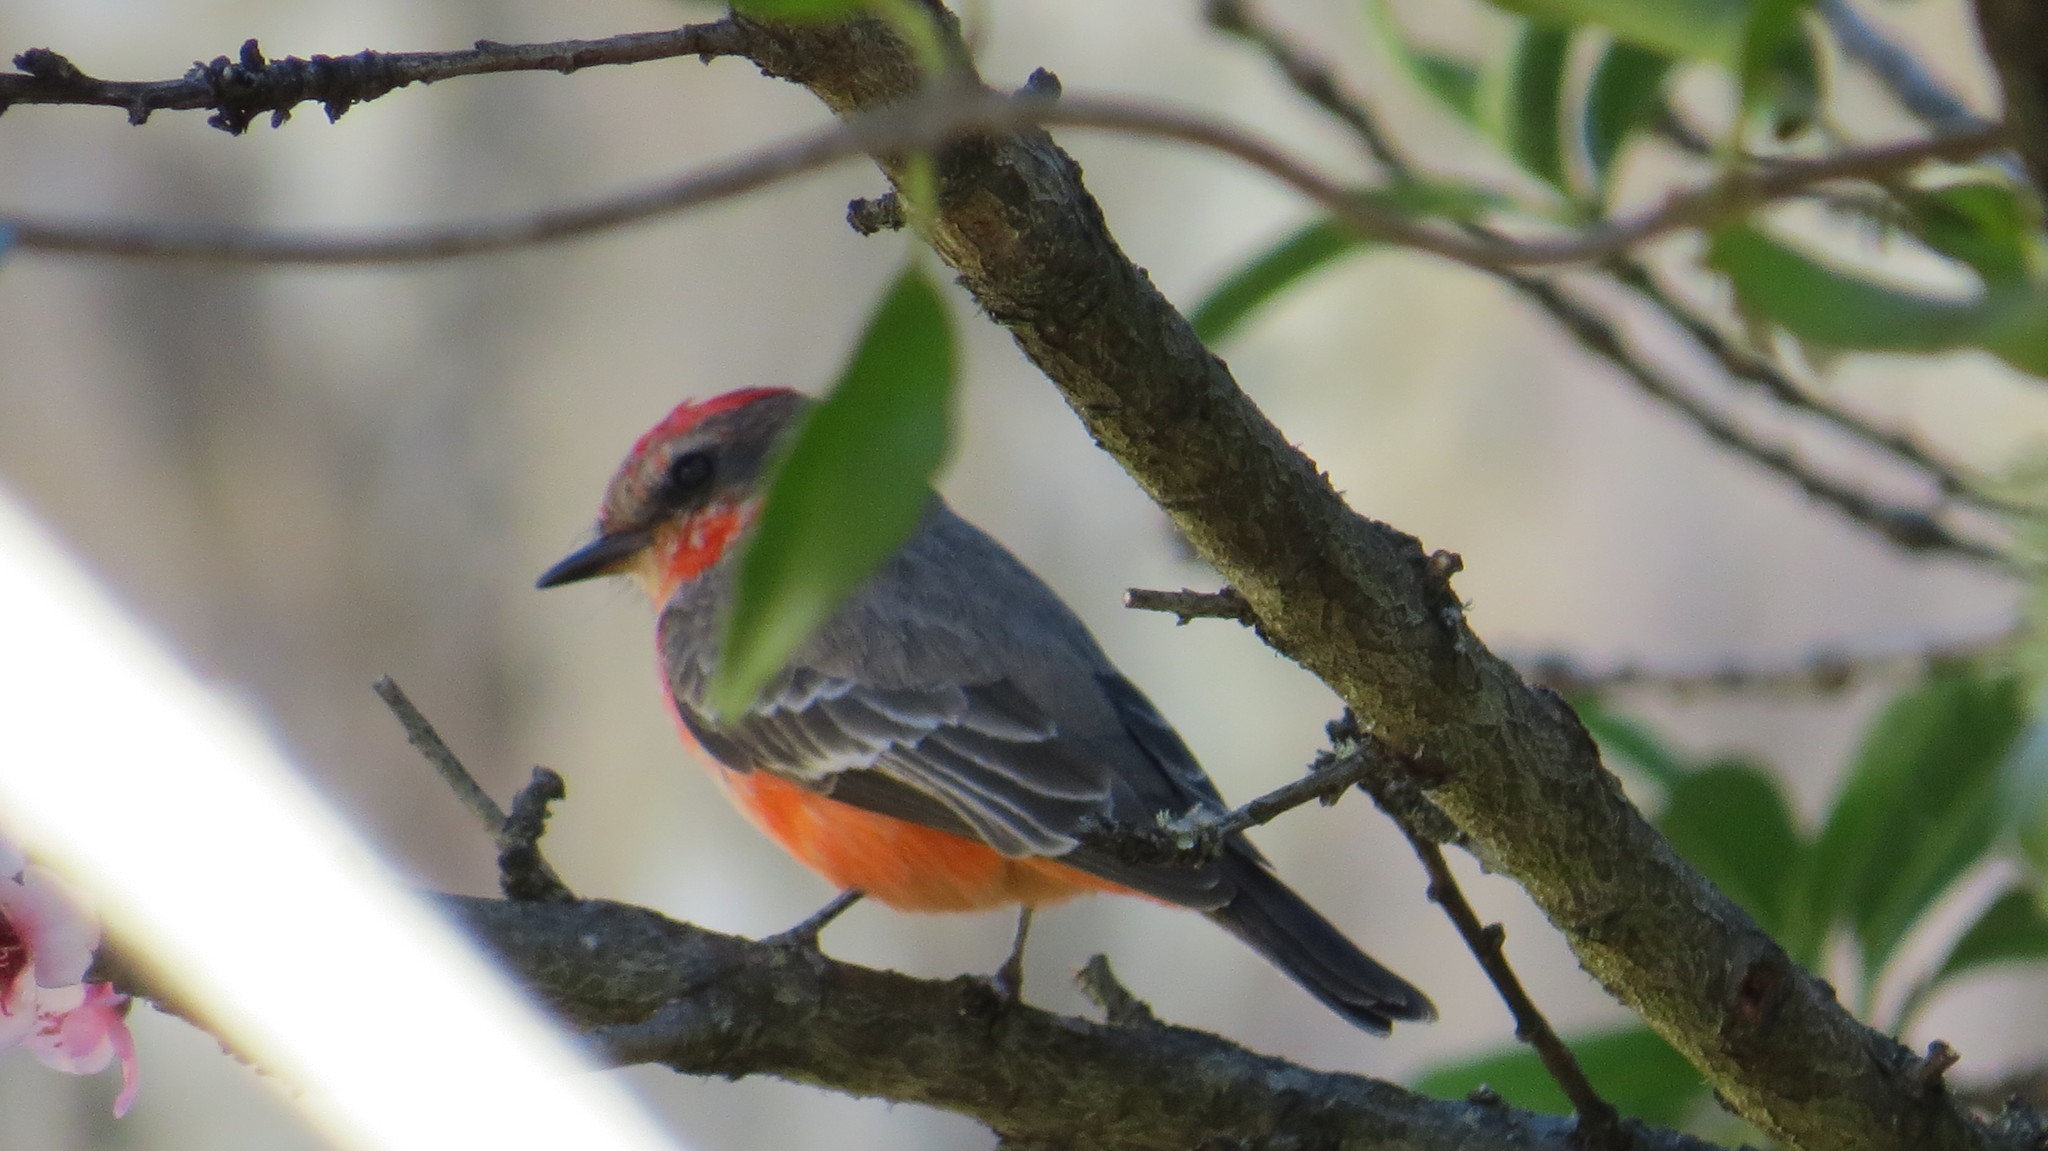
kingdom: Animalia
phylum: Chordata
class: Aves
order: Passeriformes
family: Tyrannidae
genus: Pyrocephalus
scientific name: Pyrocephalus rubinus
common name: Vermilion flycatcher
